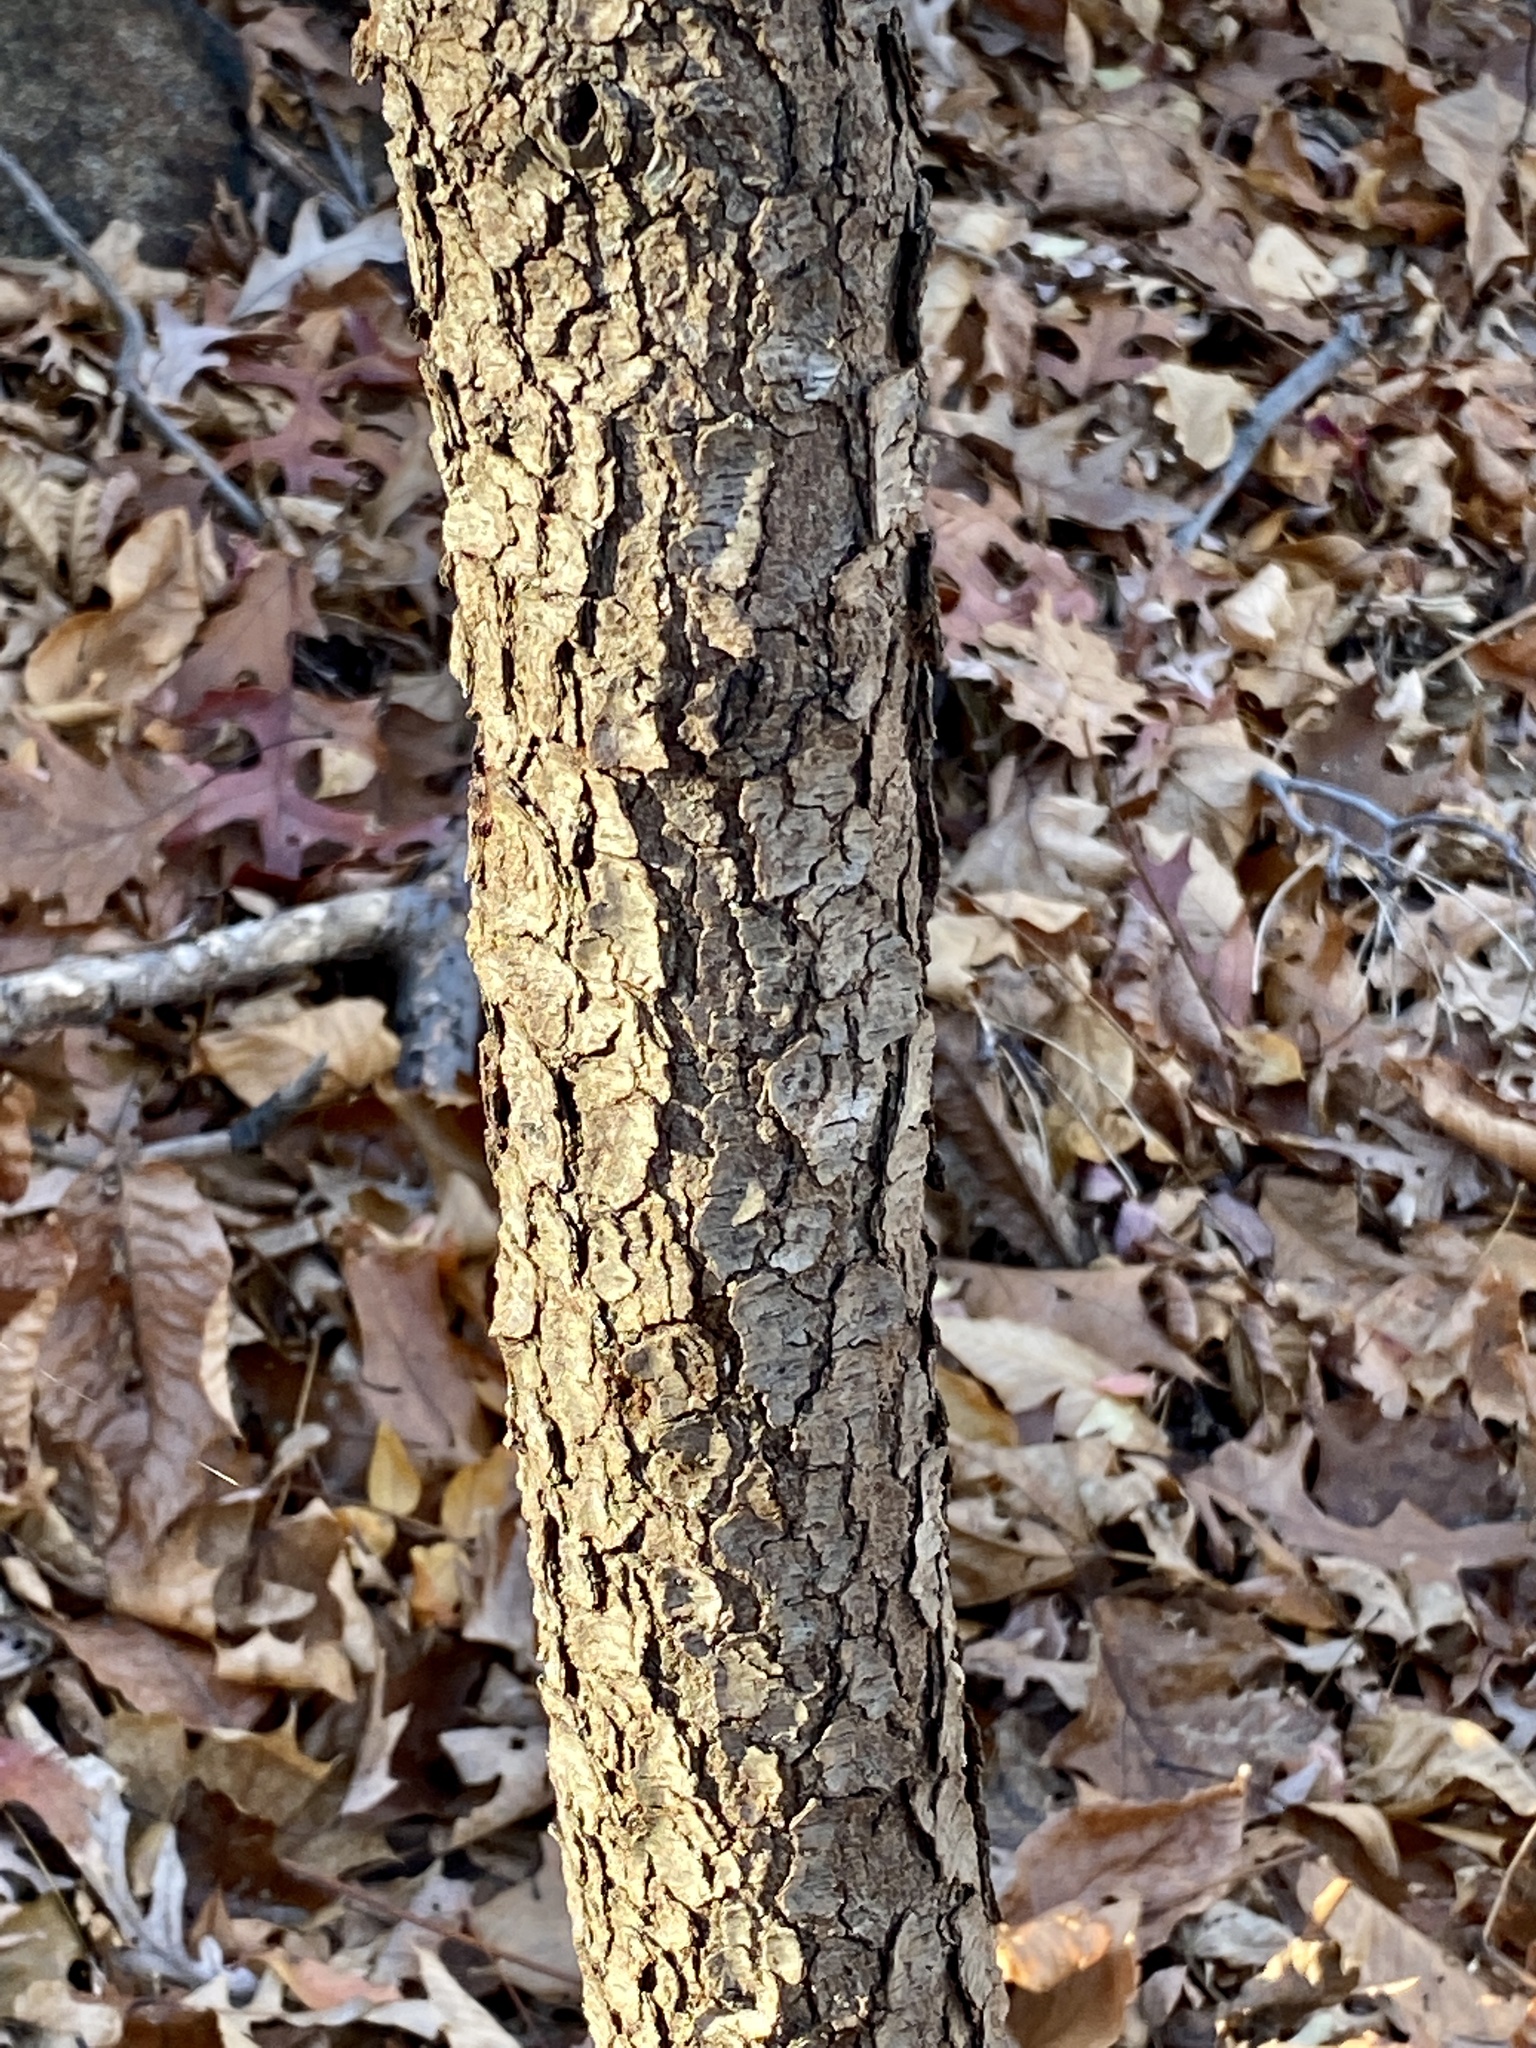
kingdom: Plantae
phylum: Tracheophyta
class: Magnoliopsida
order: Rosales
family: Rosaceae
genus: Prunus
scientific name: Prunus serotina
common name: Black cherry
